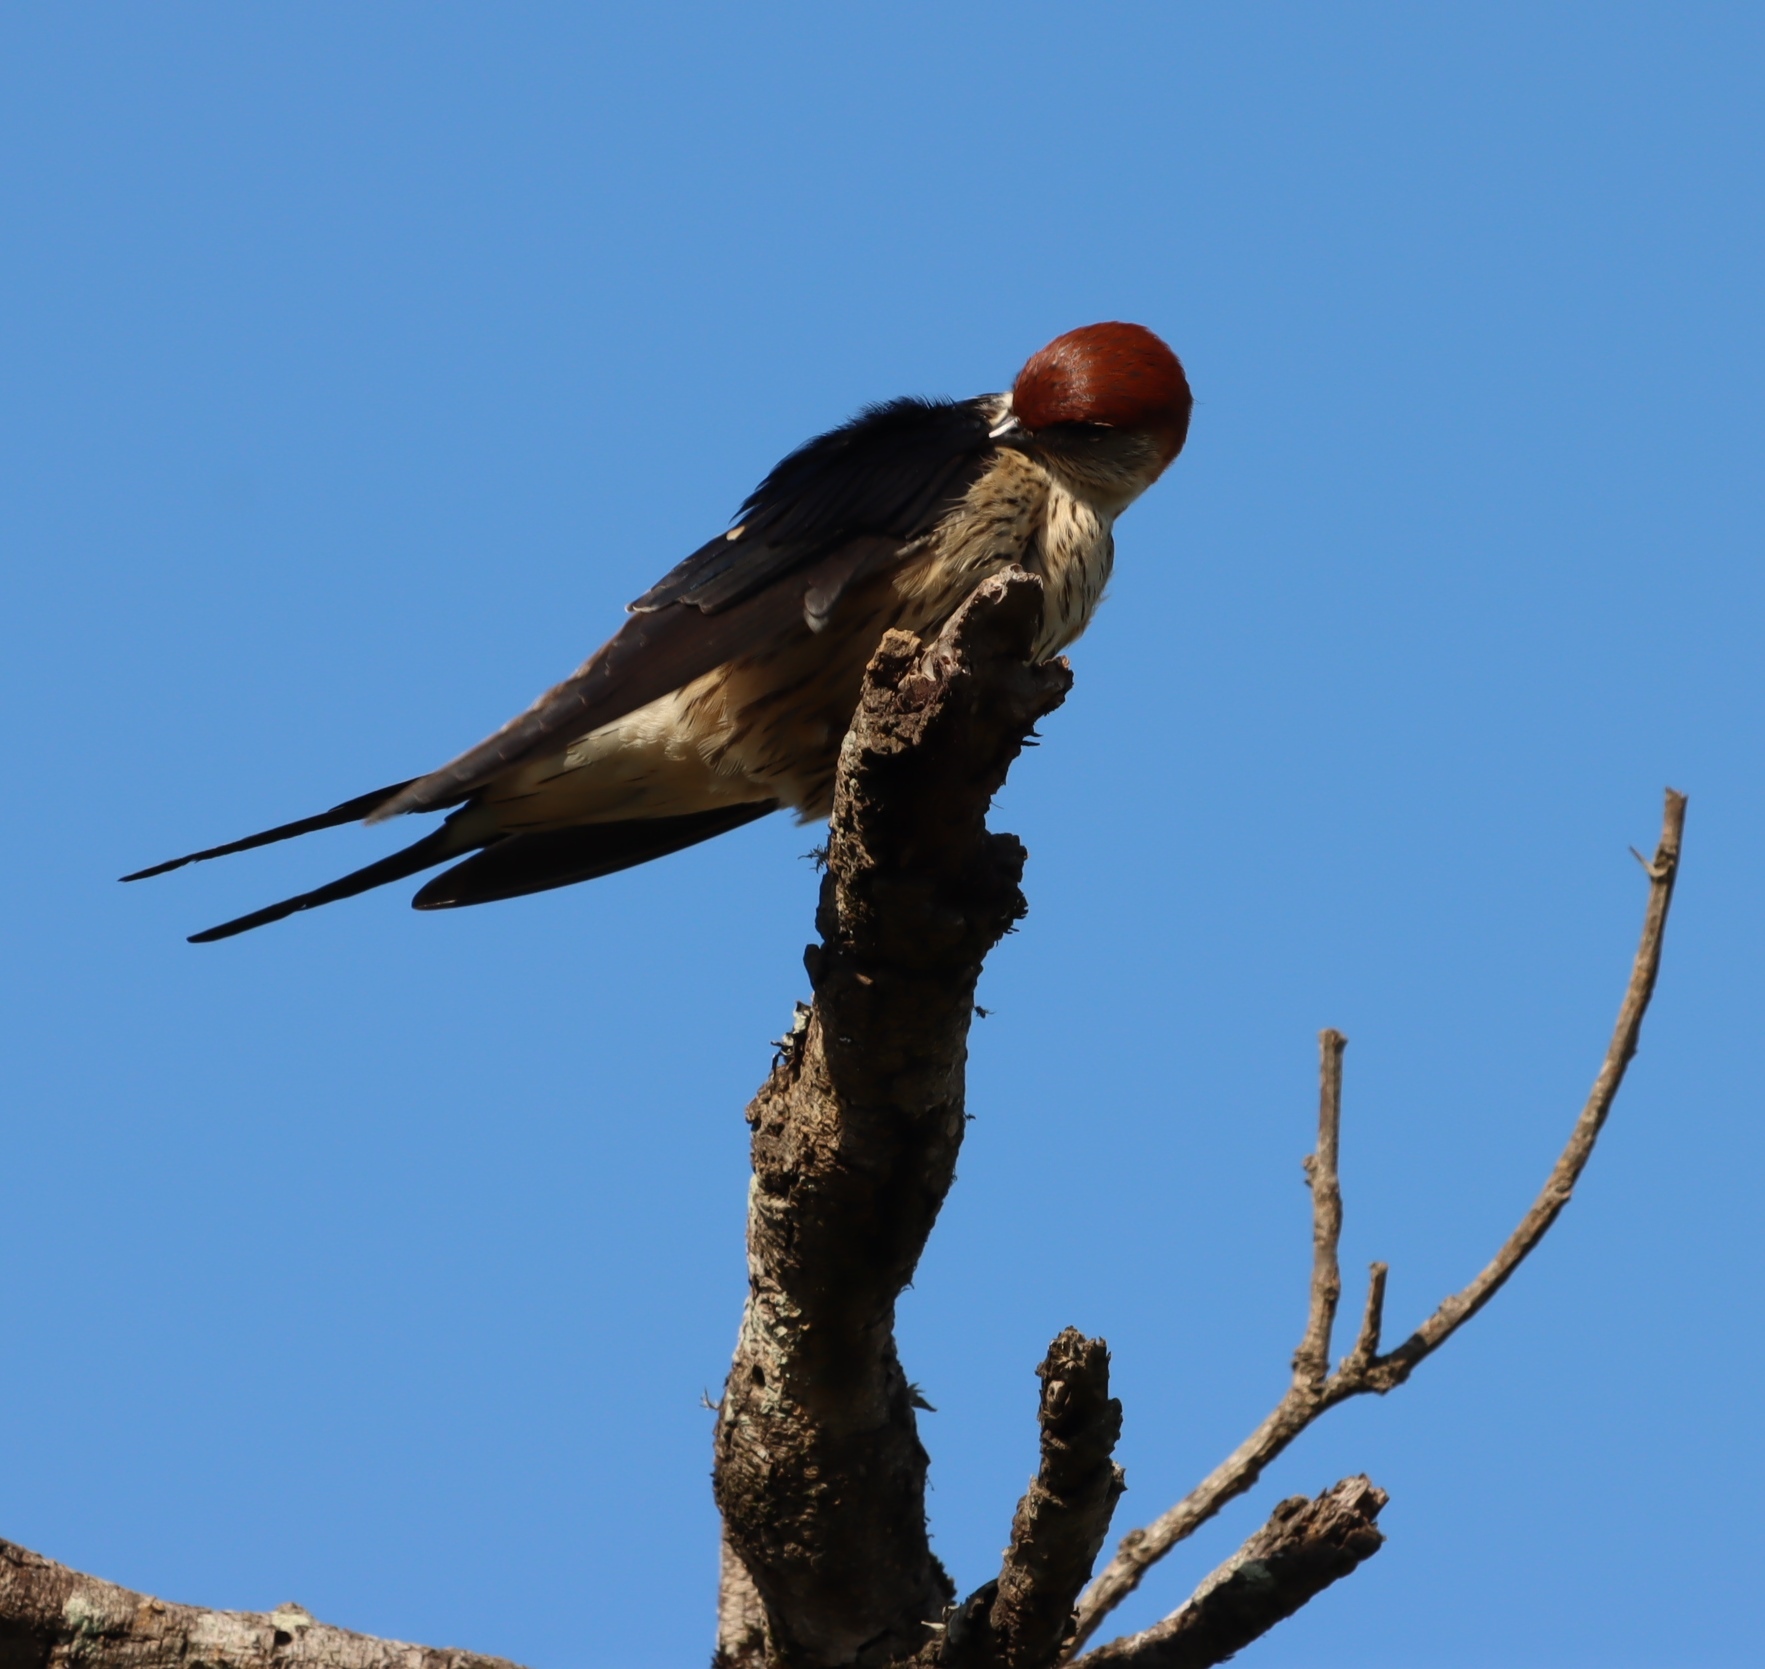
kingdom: Animalia
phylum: Chordata
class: Aves
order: Passeriformes
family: Hirundinidae
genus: Cecropis
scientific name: Cecropis cucullata
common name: Greater striped-swallow
